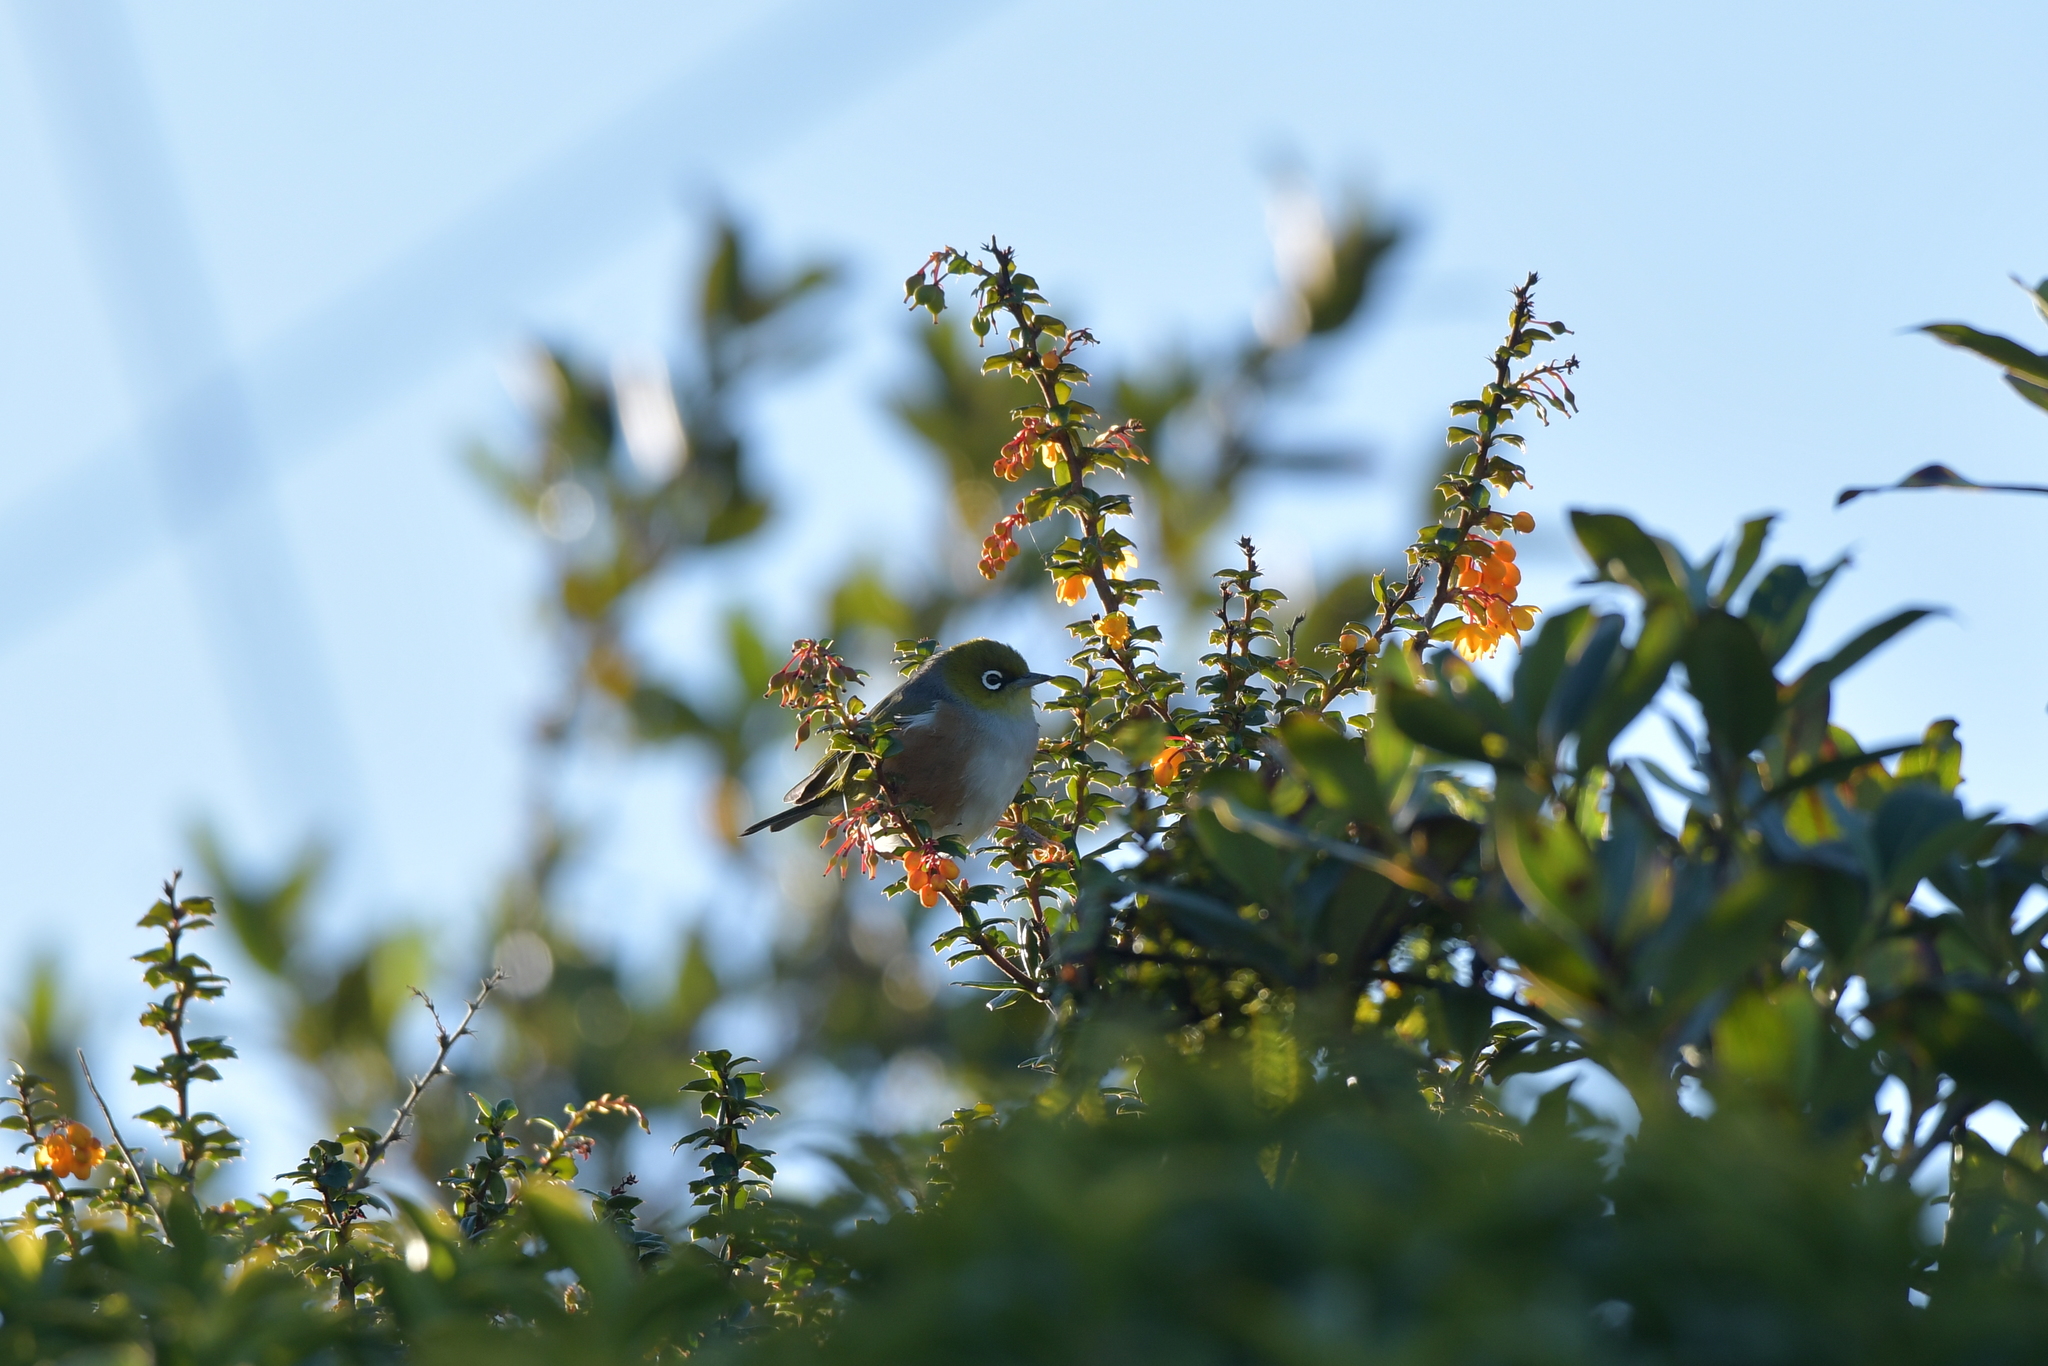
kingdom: Animalia
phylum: Chordata
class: Aves
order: Passeriformes
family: Zosteropidae
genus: Zosterops
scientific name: Zosterops lateralis
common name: Silvereye
